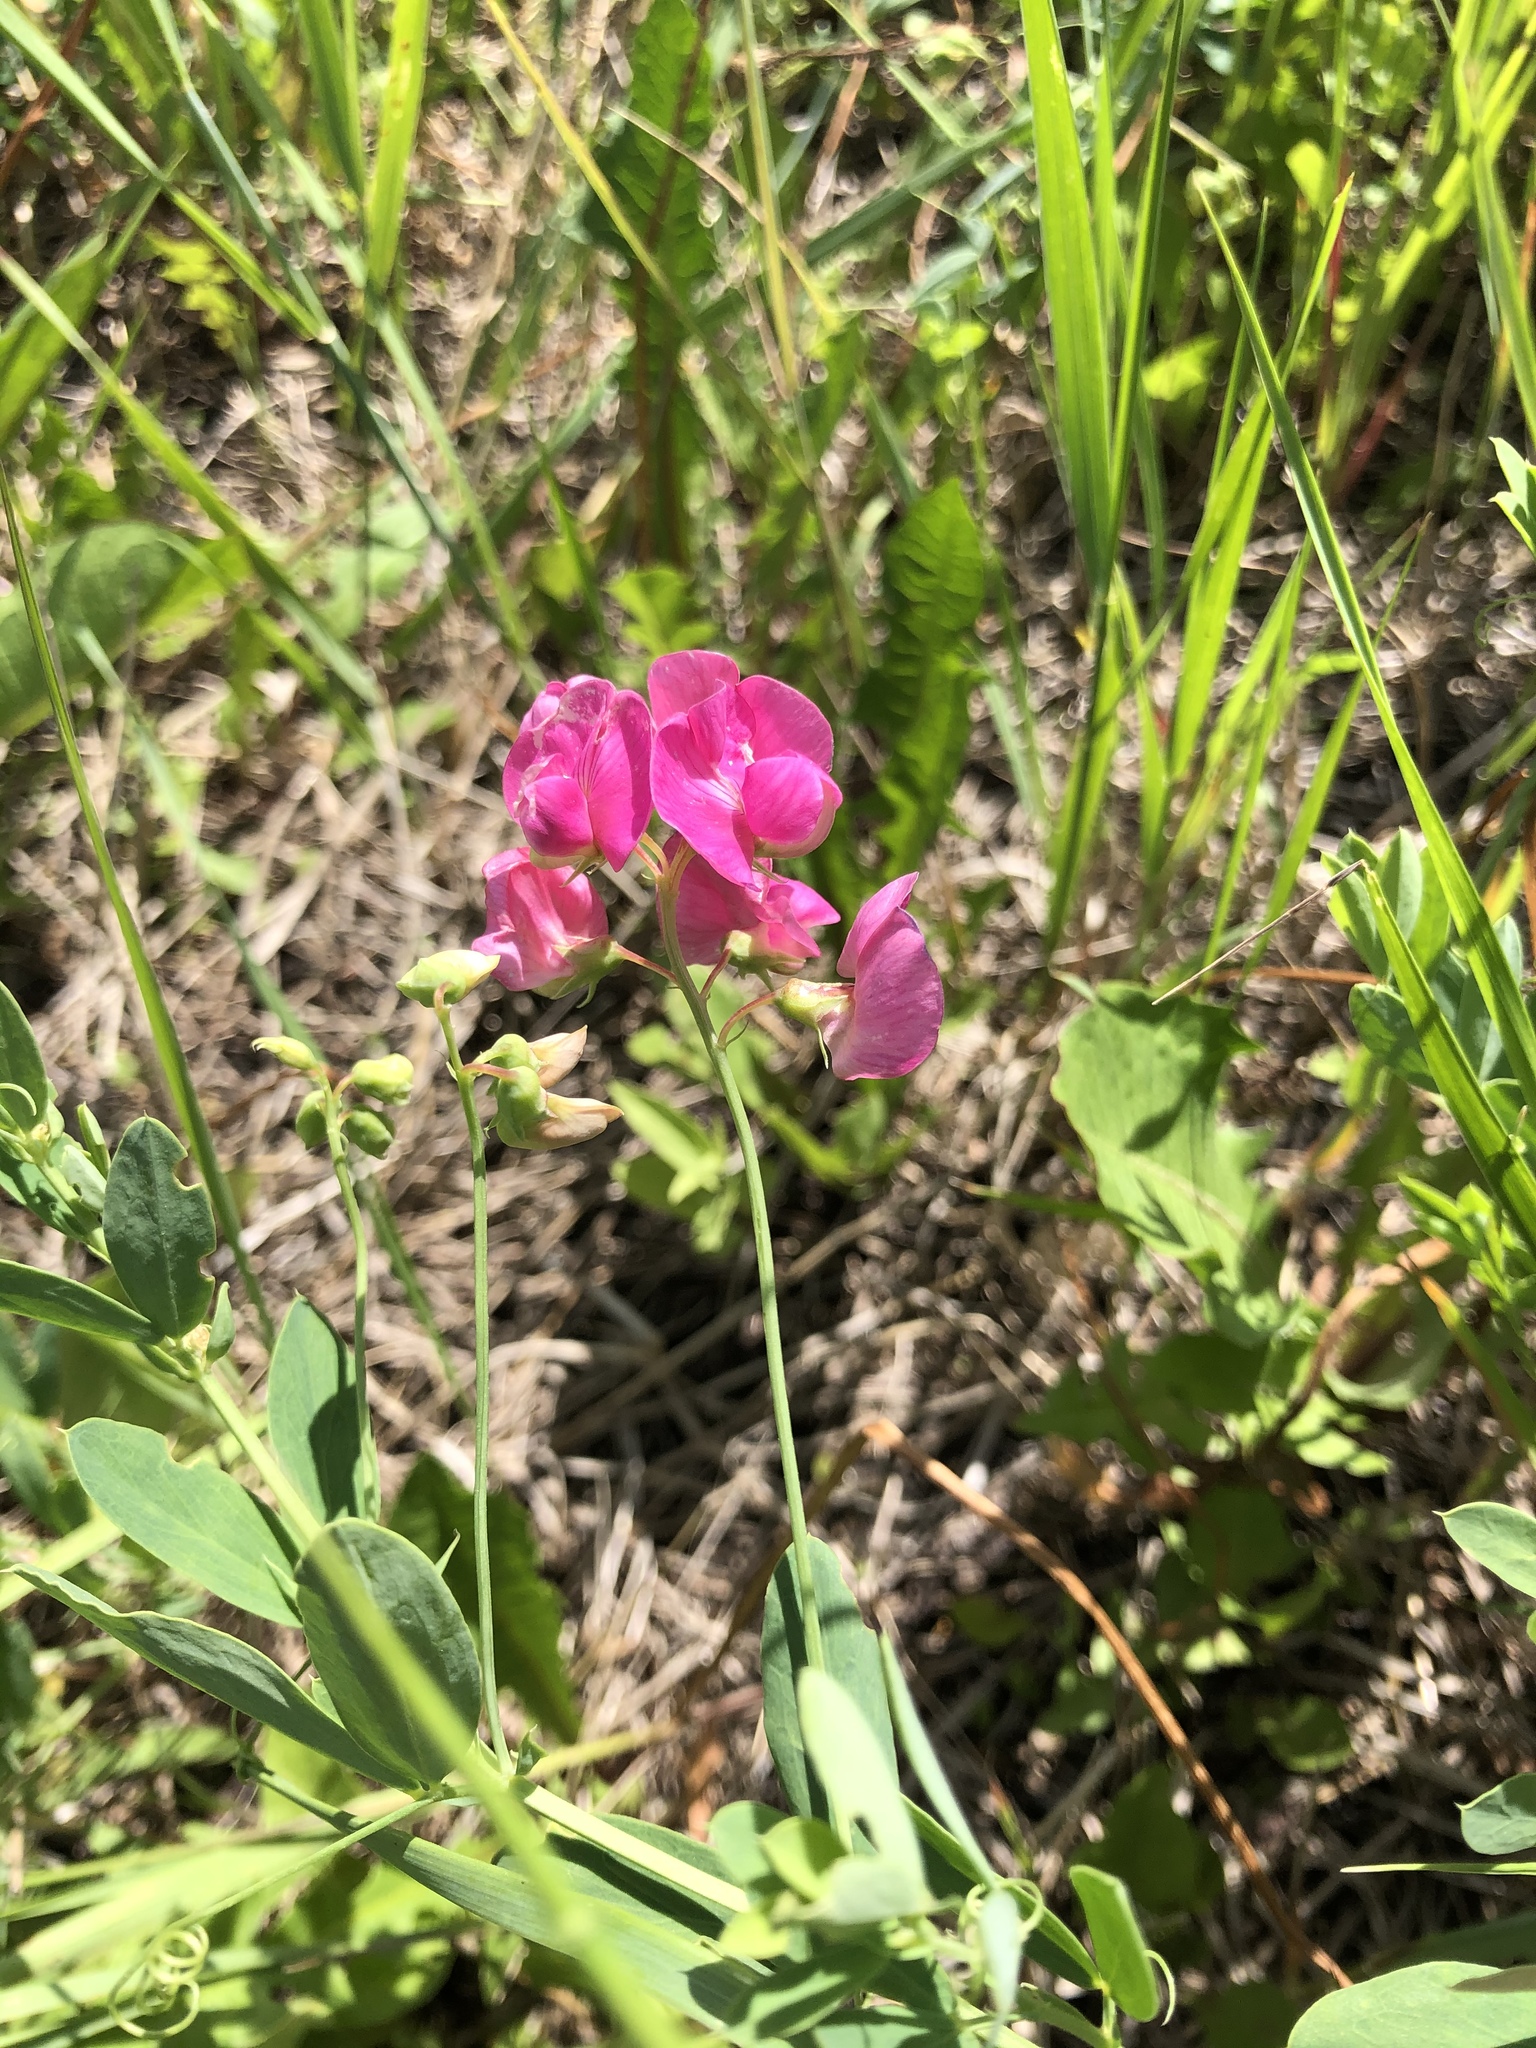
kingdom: Plantae
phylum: Tracheophyta
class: Magnoliopsida
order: Fabales
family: Fabaceae
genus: Lathyrus
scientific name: Lathyrus tuberosus
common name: Tuberous pea
